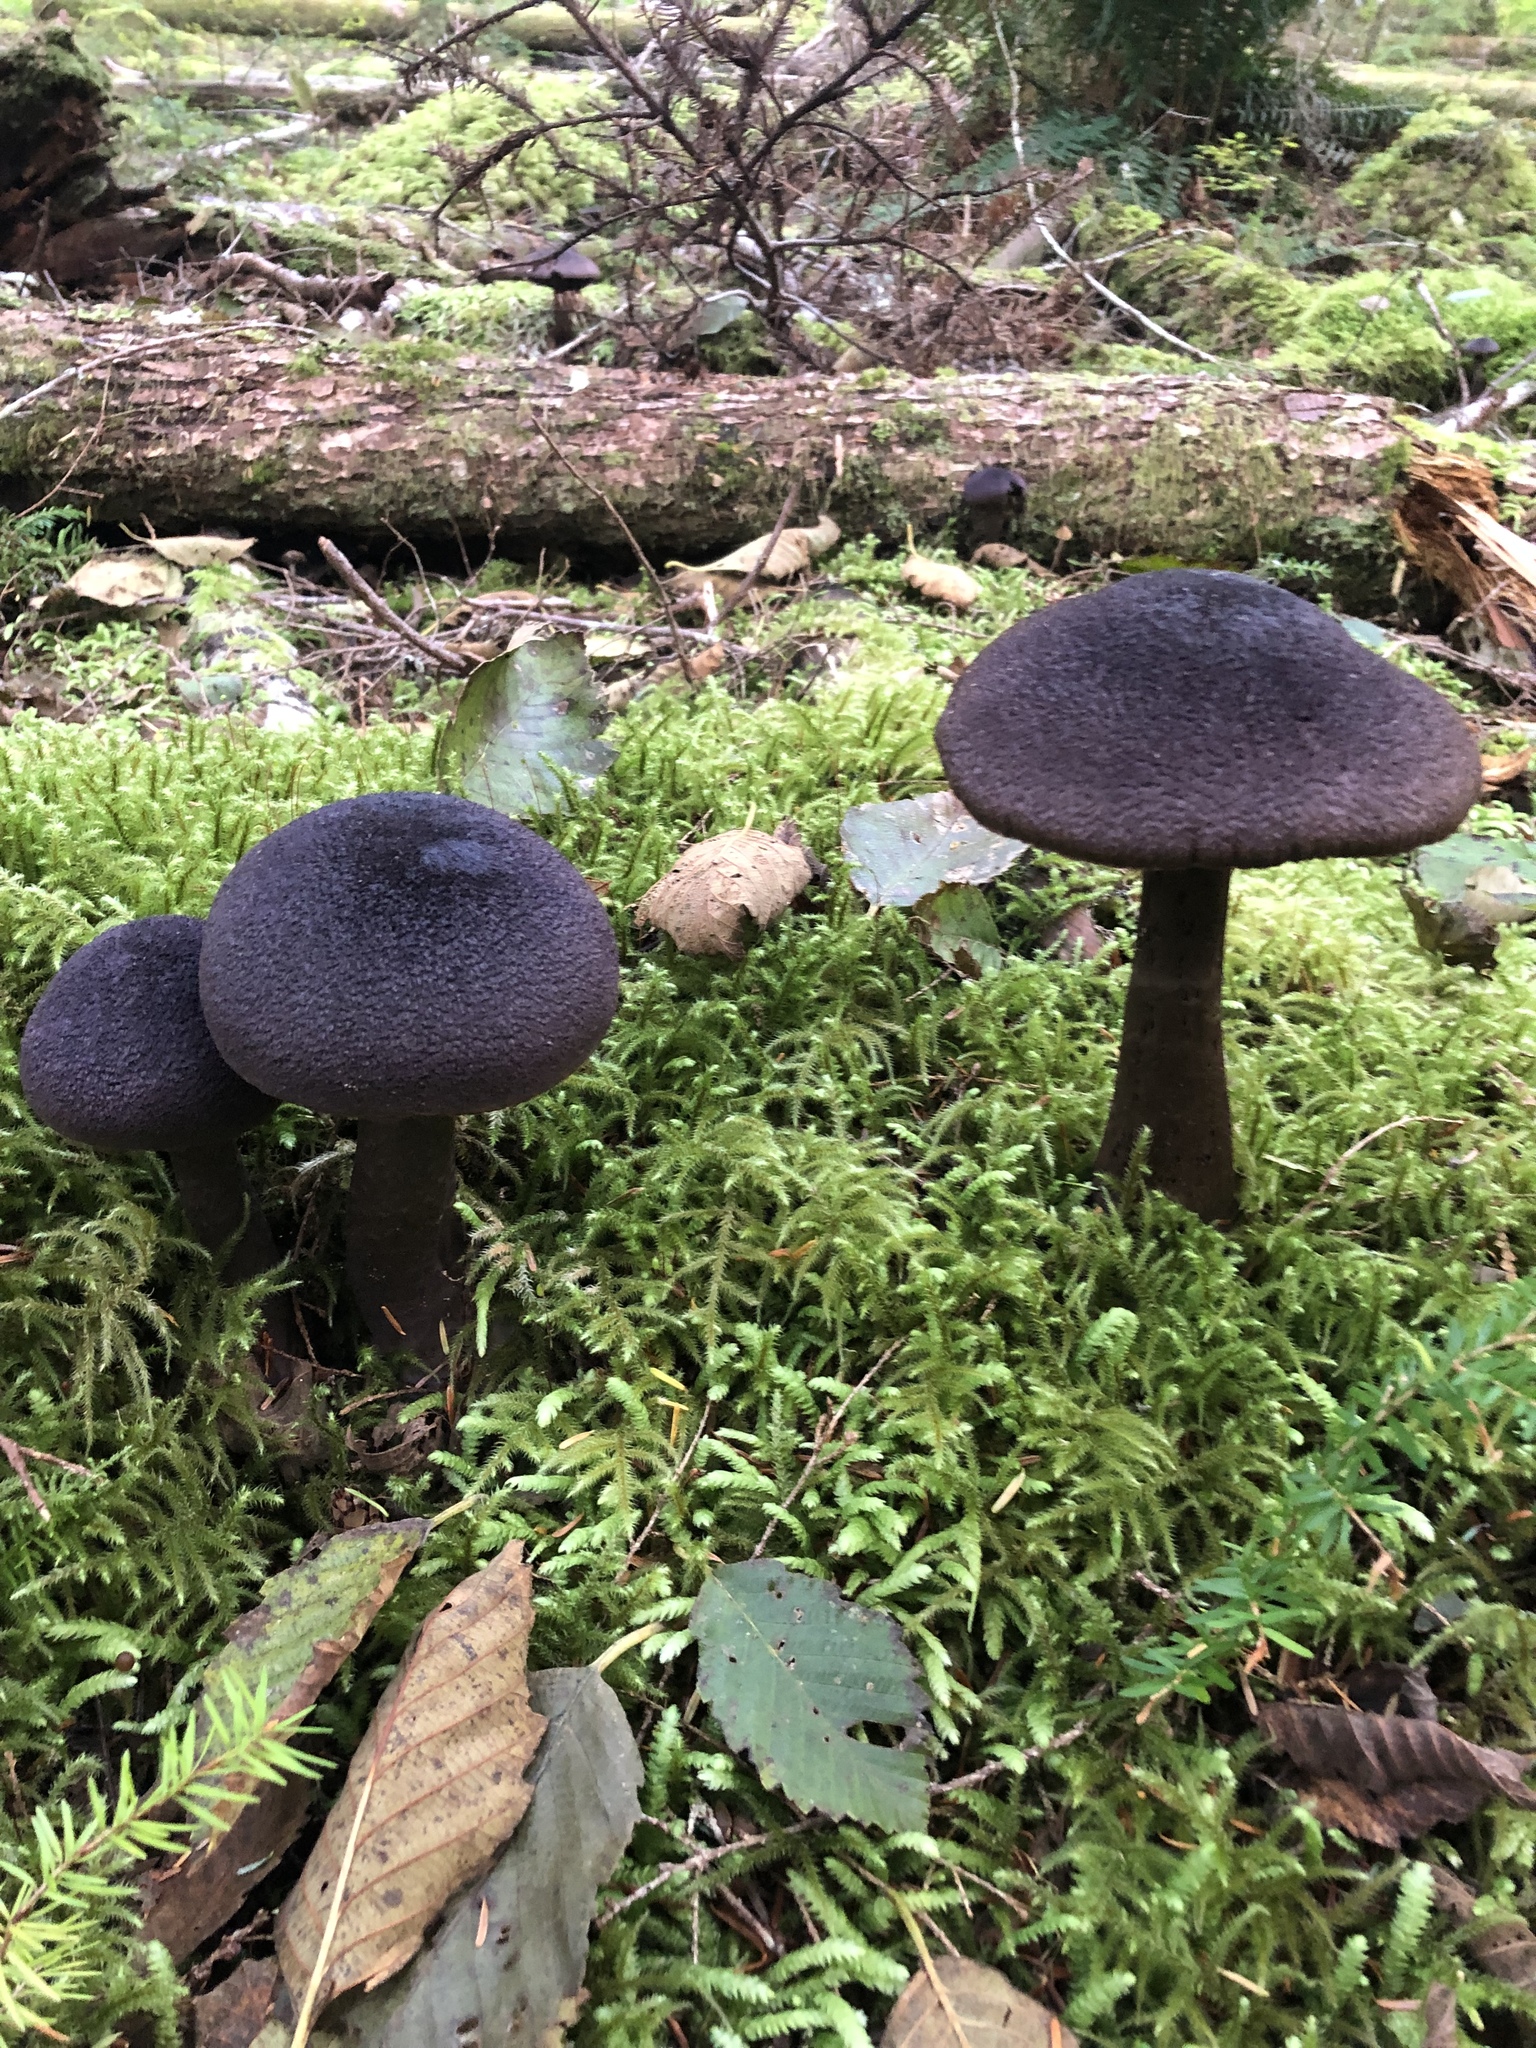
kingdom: Fungi
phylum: Basidiomycota
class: Agaricomycetes
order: Agaricales
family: Cortinariaceae
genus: Cortinarius
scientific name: Cortinarius violaceus
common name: Violet webcap
